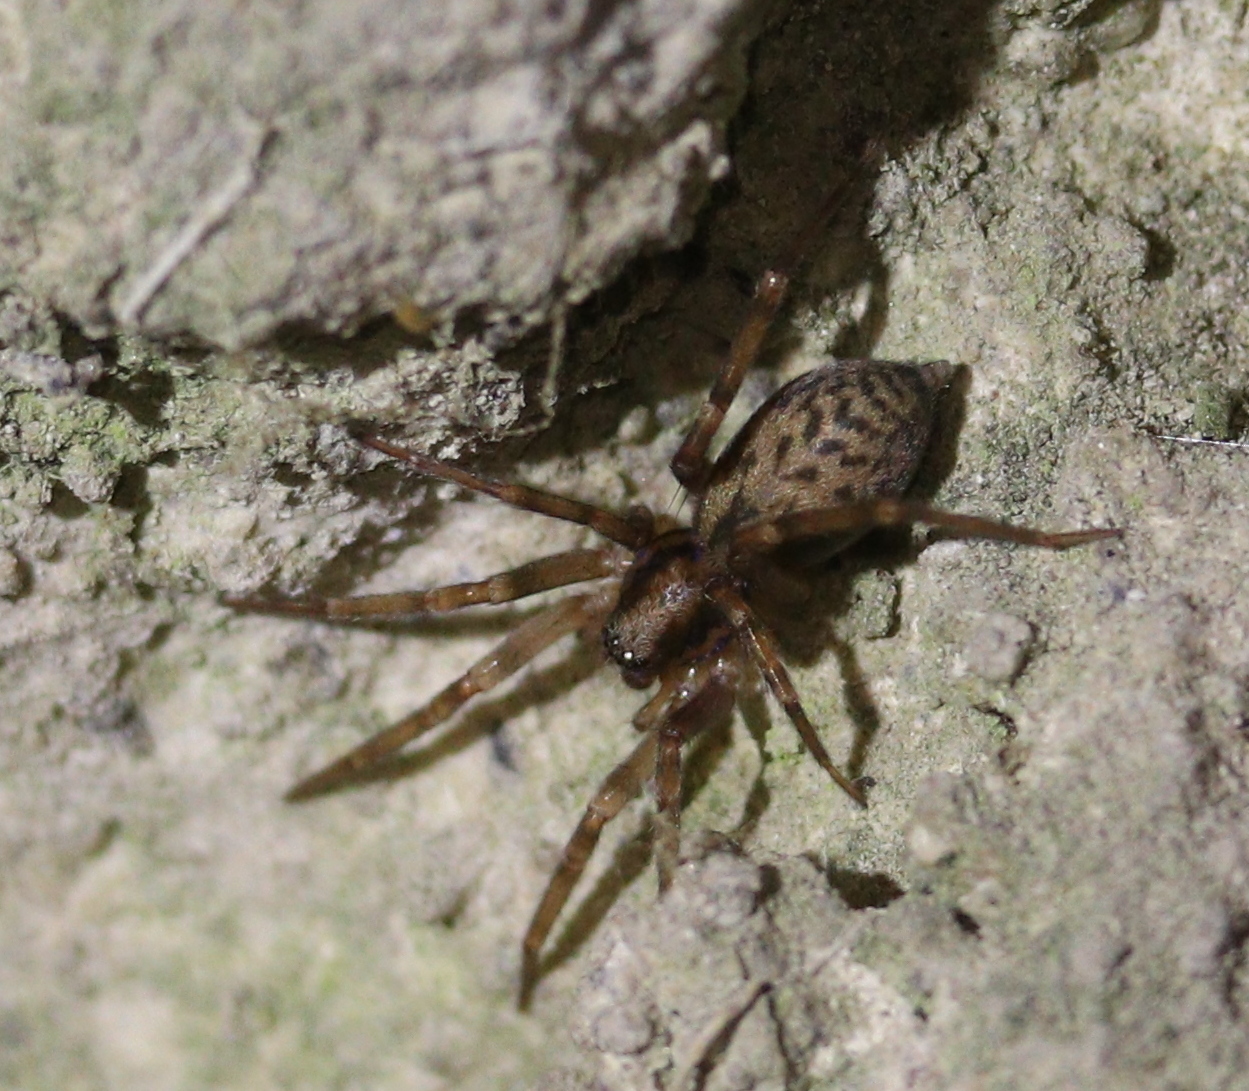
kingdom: Animalia
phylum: Arthropoda
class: Arachnida
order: Araneae
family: Liocranidae
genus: Liocranum
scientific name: Liocranum rupicola
